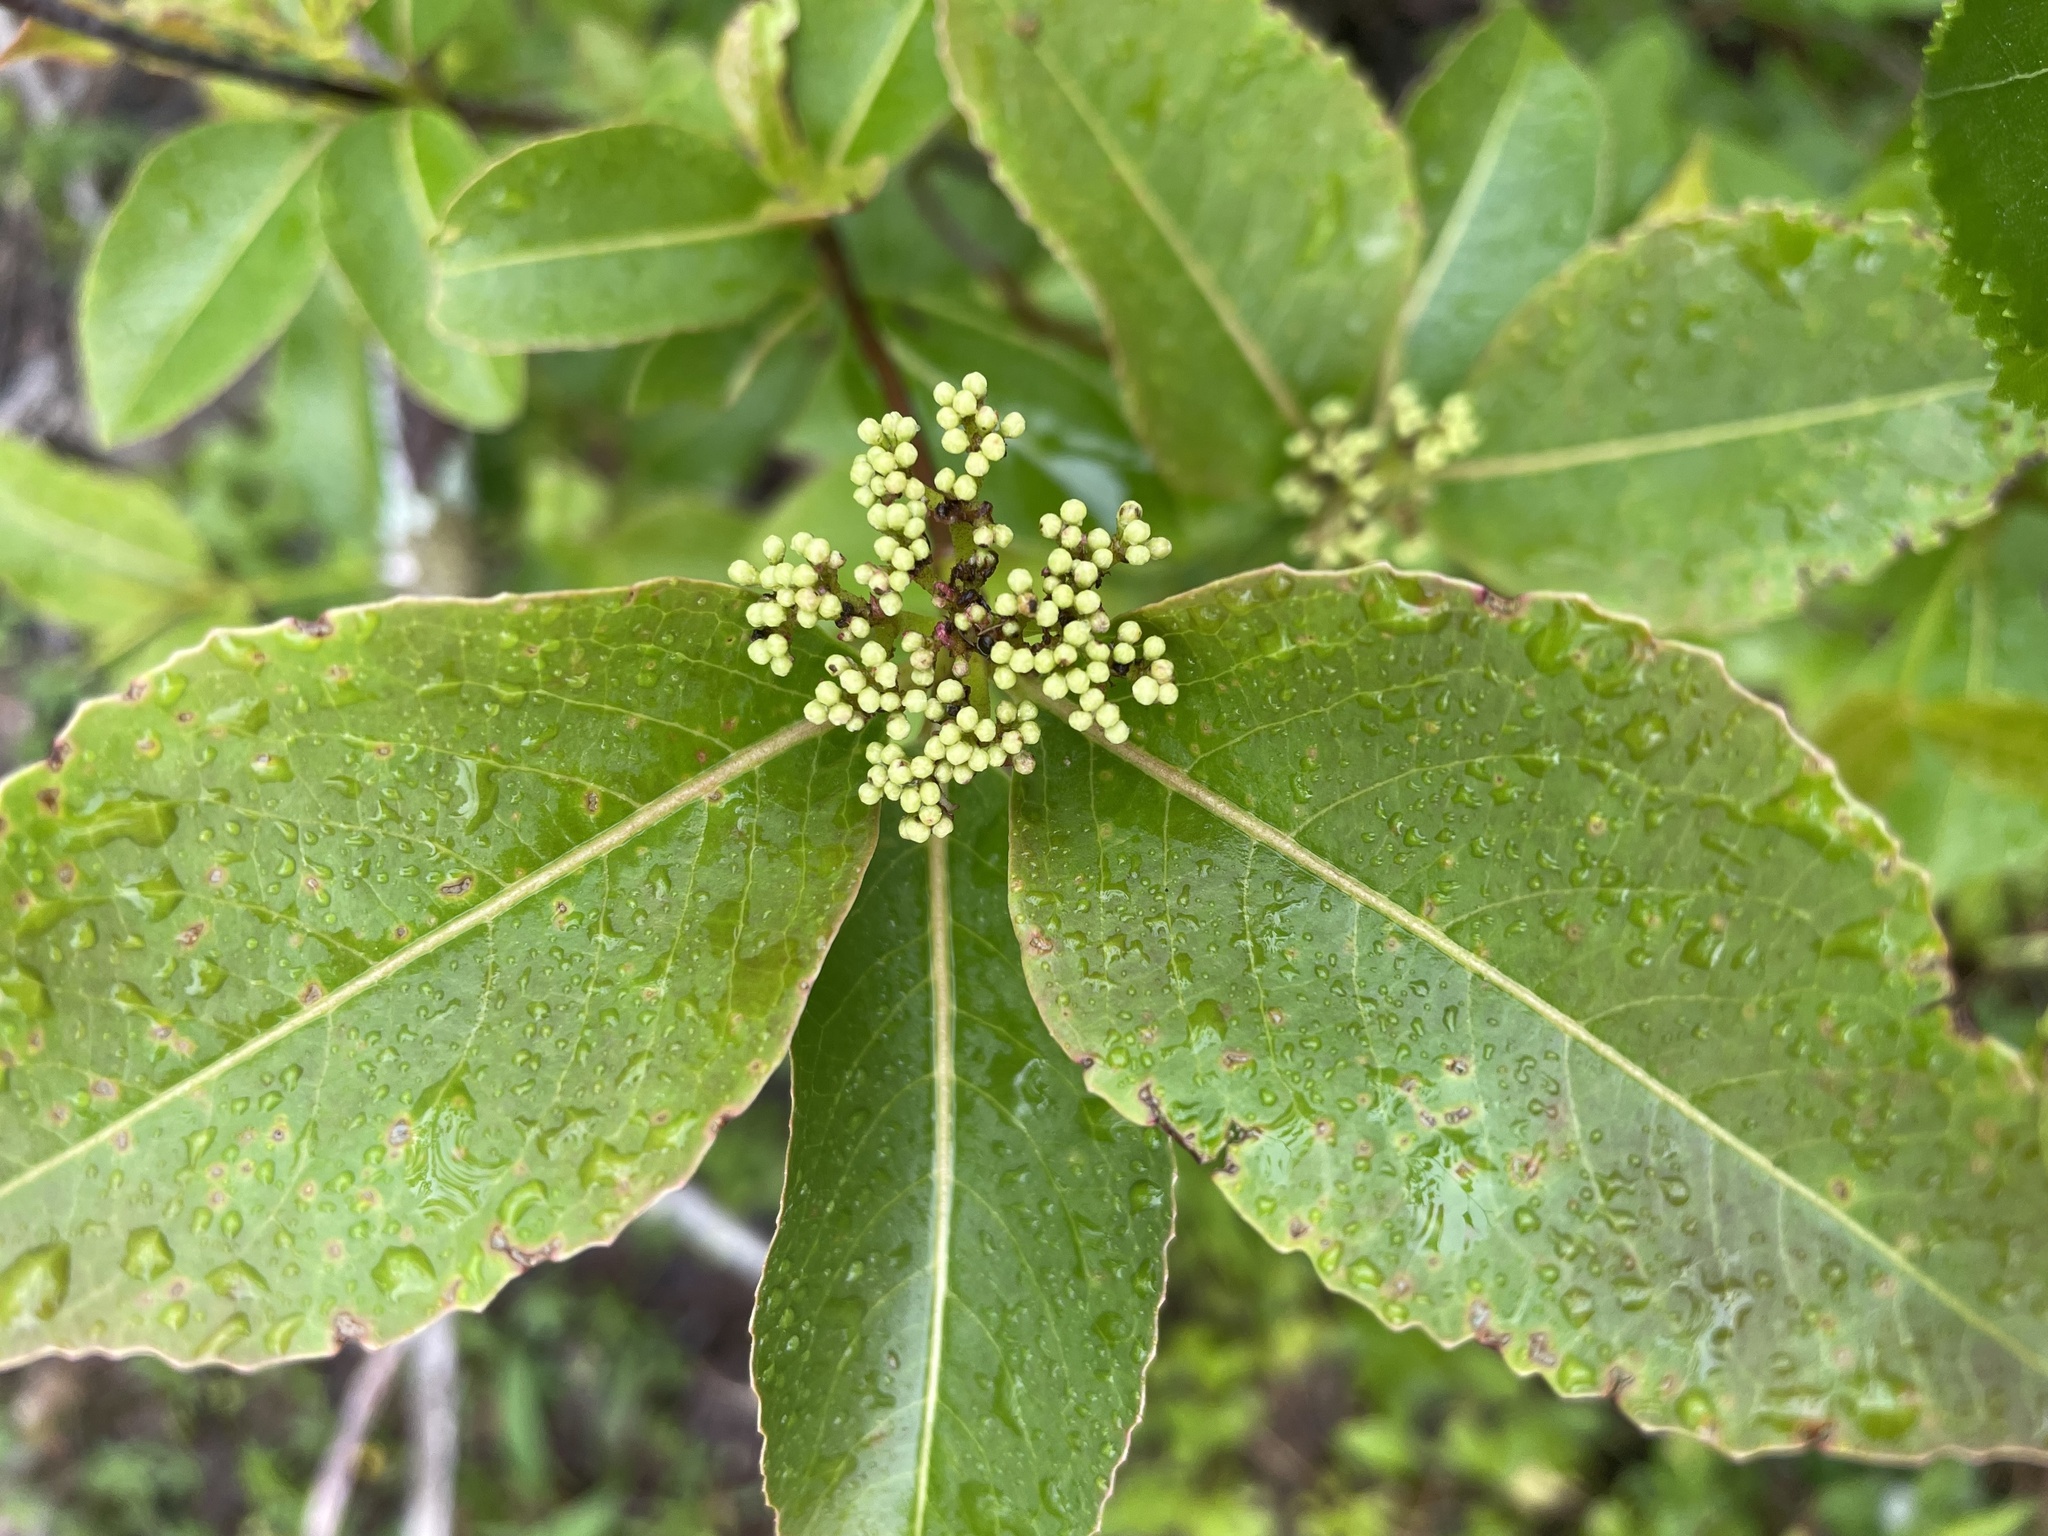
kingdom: Plantae
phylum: Tracheophyta
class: Magnoliopsida
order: Dipsacales
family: Viburnaceae
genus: Viburnum
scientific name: Viburnum cassinoides
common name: Swamp haw
